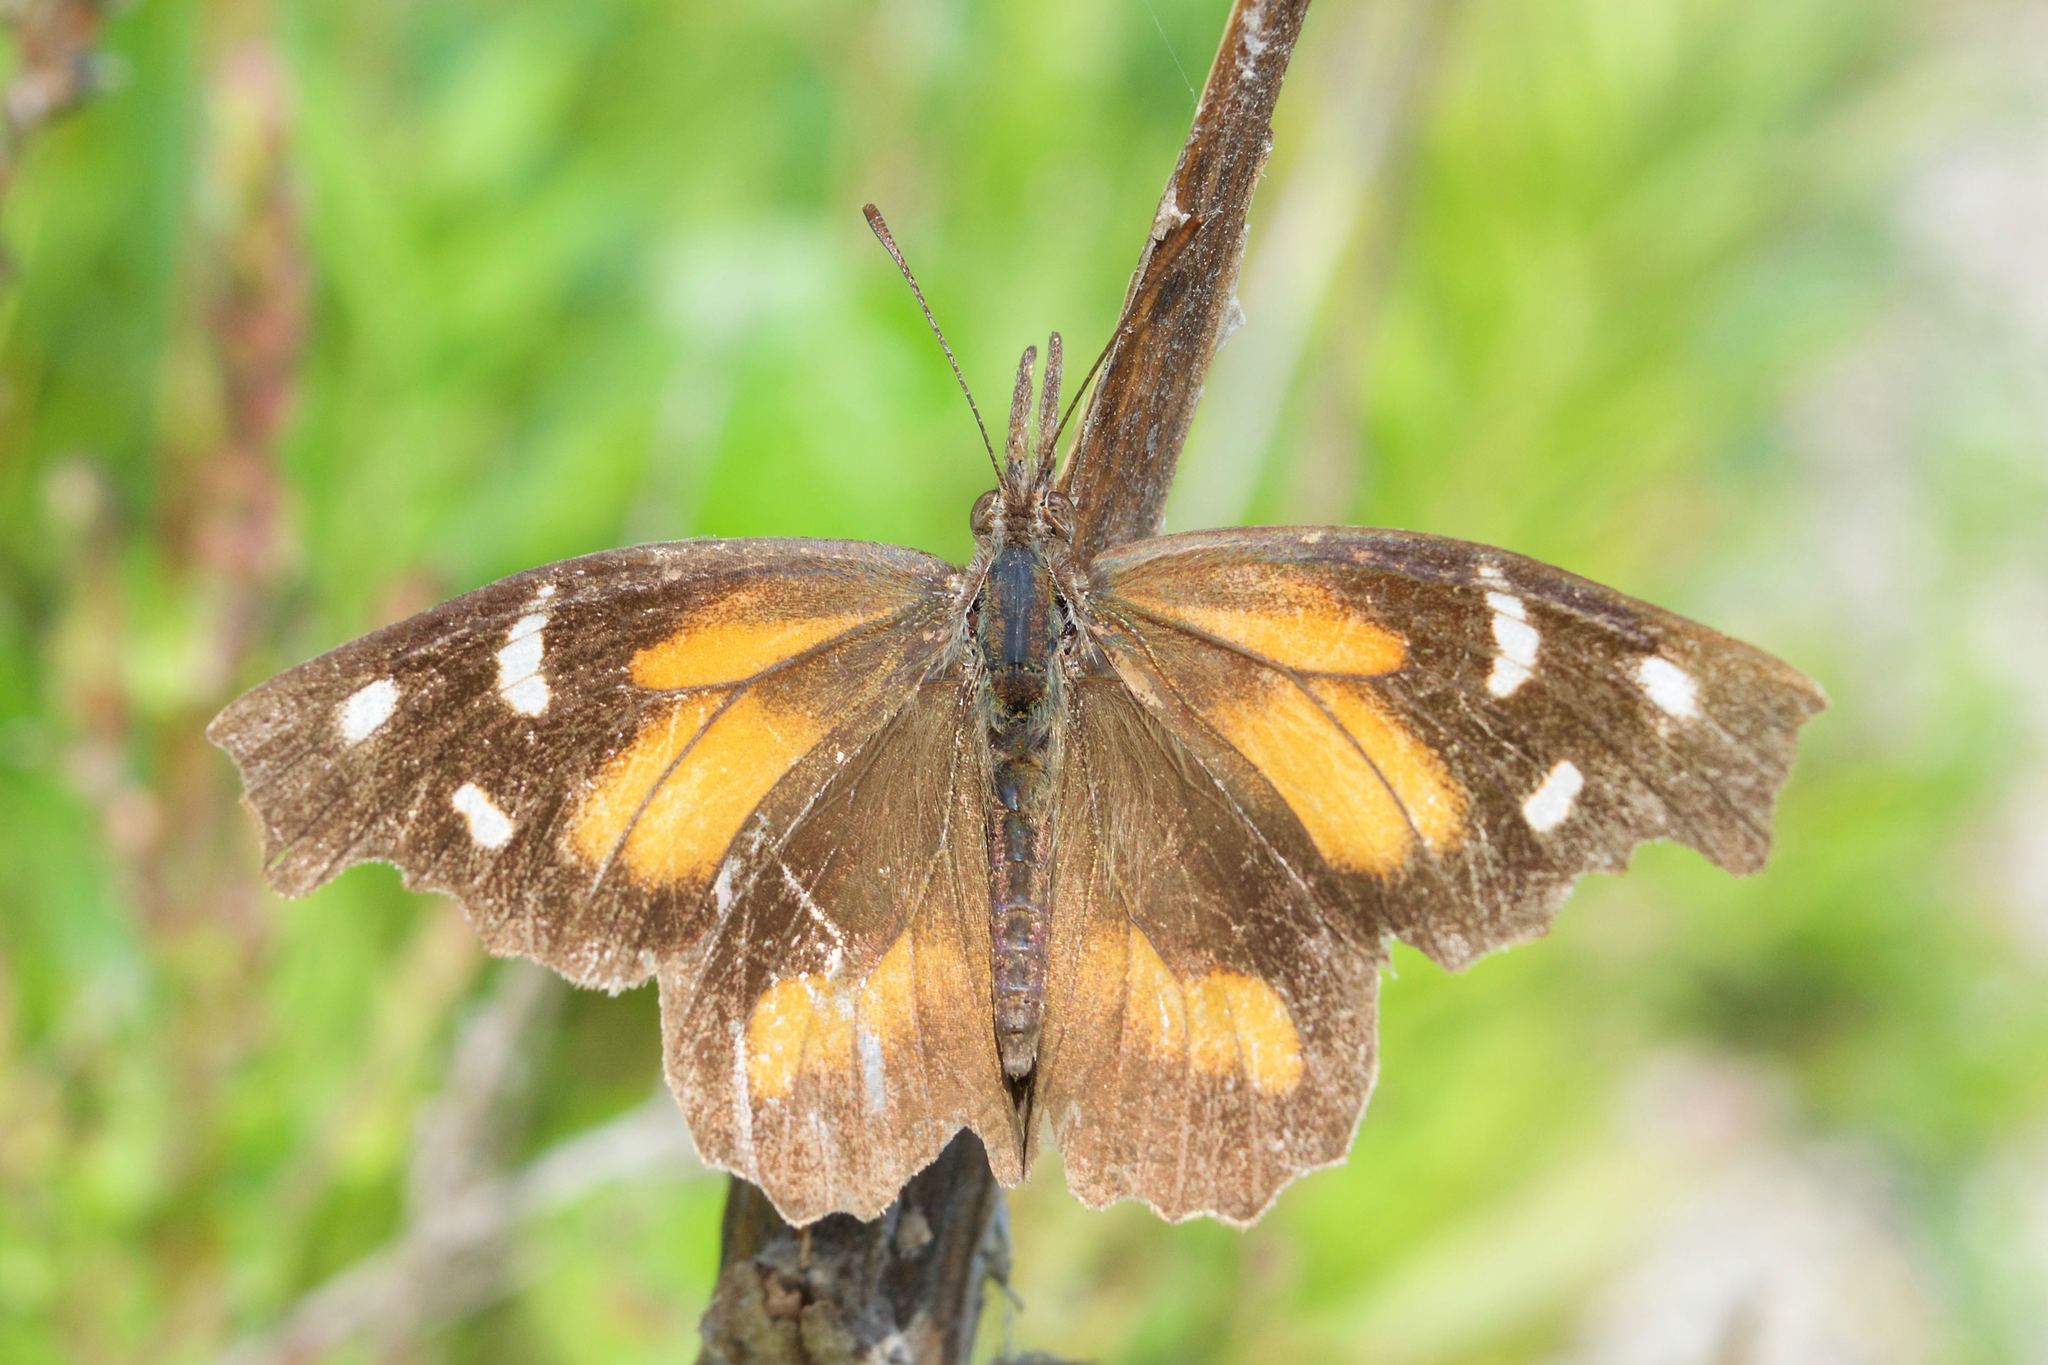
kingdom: Animalia
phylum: Arthropoda
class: Insecta
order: Lepidoptera
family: Nymphalidae
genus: Libytheana
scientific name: Libytheana carinenta
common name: American snout
